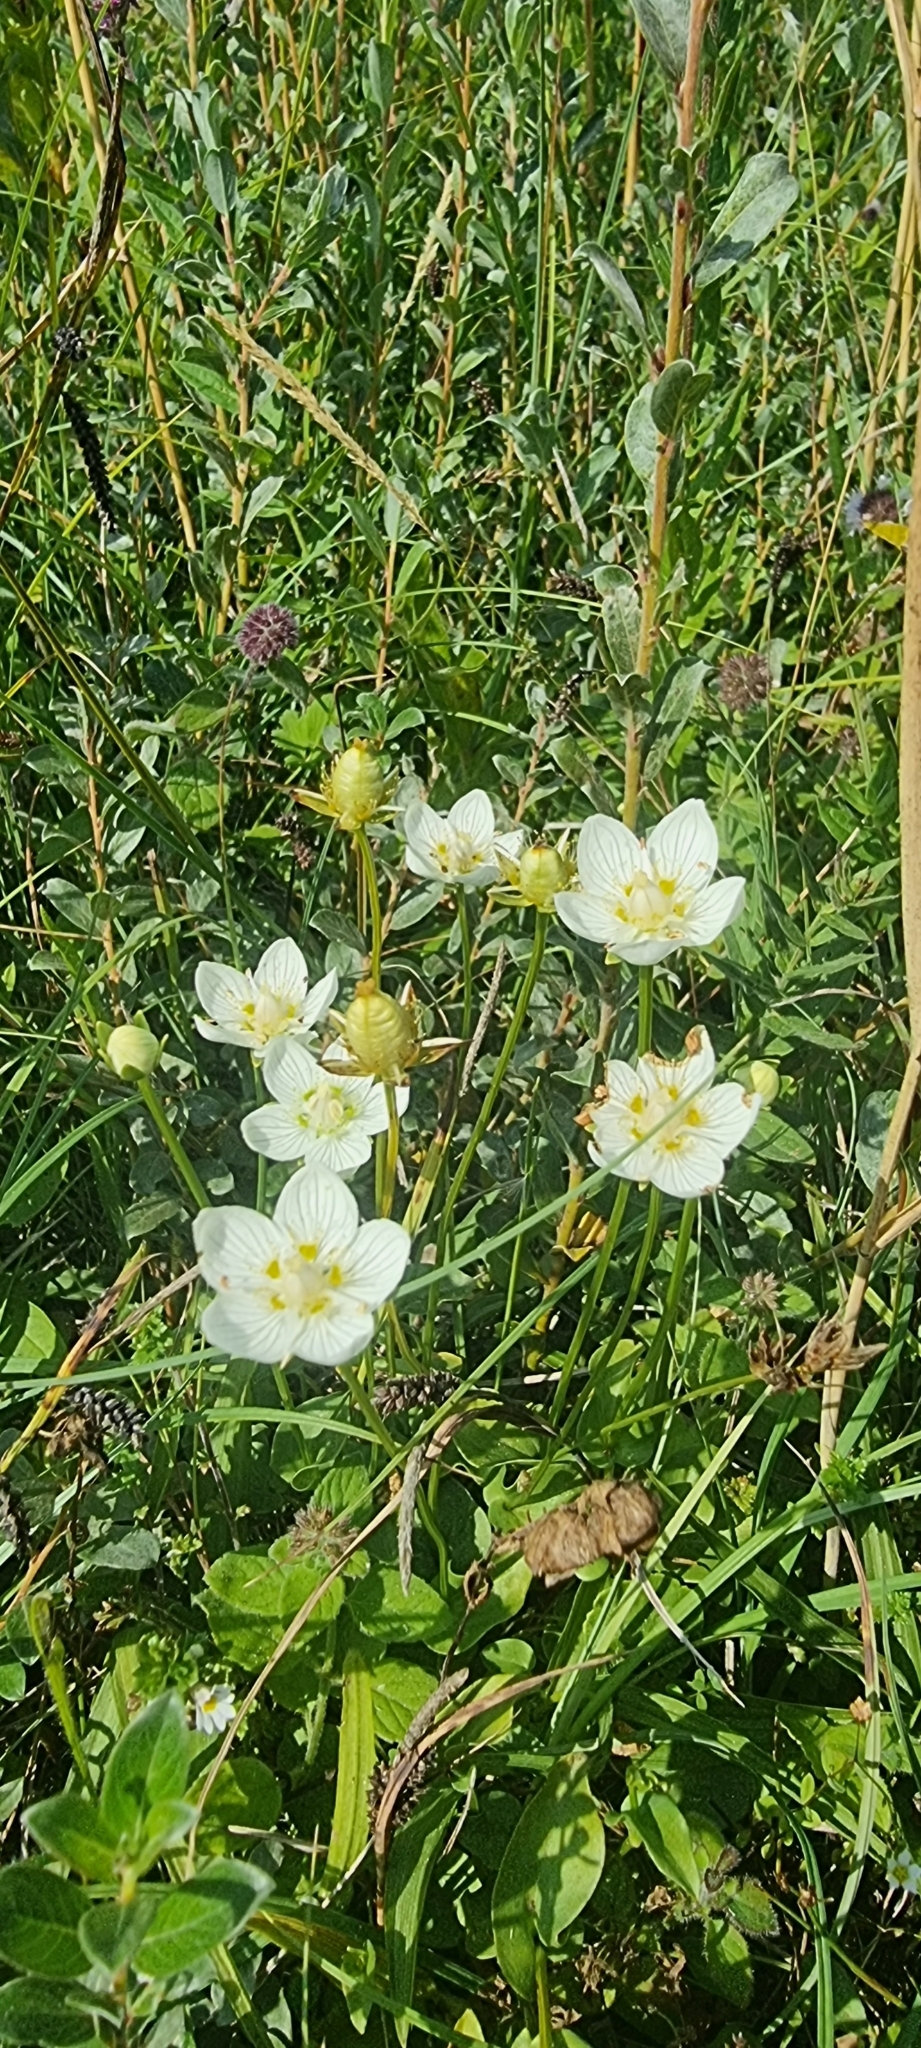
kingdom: Plantae
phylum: Tracheophyta
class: Magnoliopsida
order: Celastrales
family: Parnassiaceae
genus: Parnassia
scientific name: Parnassia palustris
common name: Grass-of-parnassus
